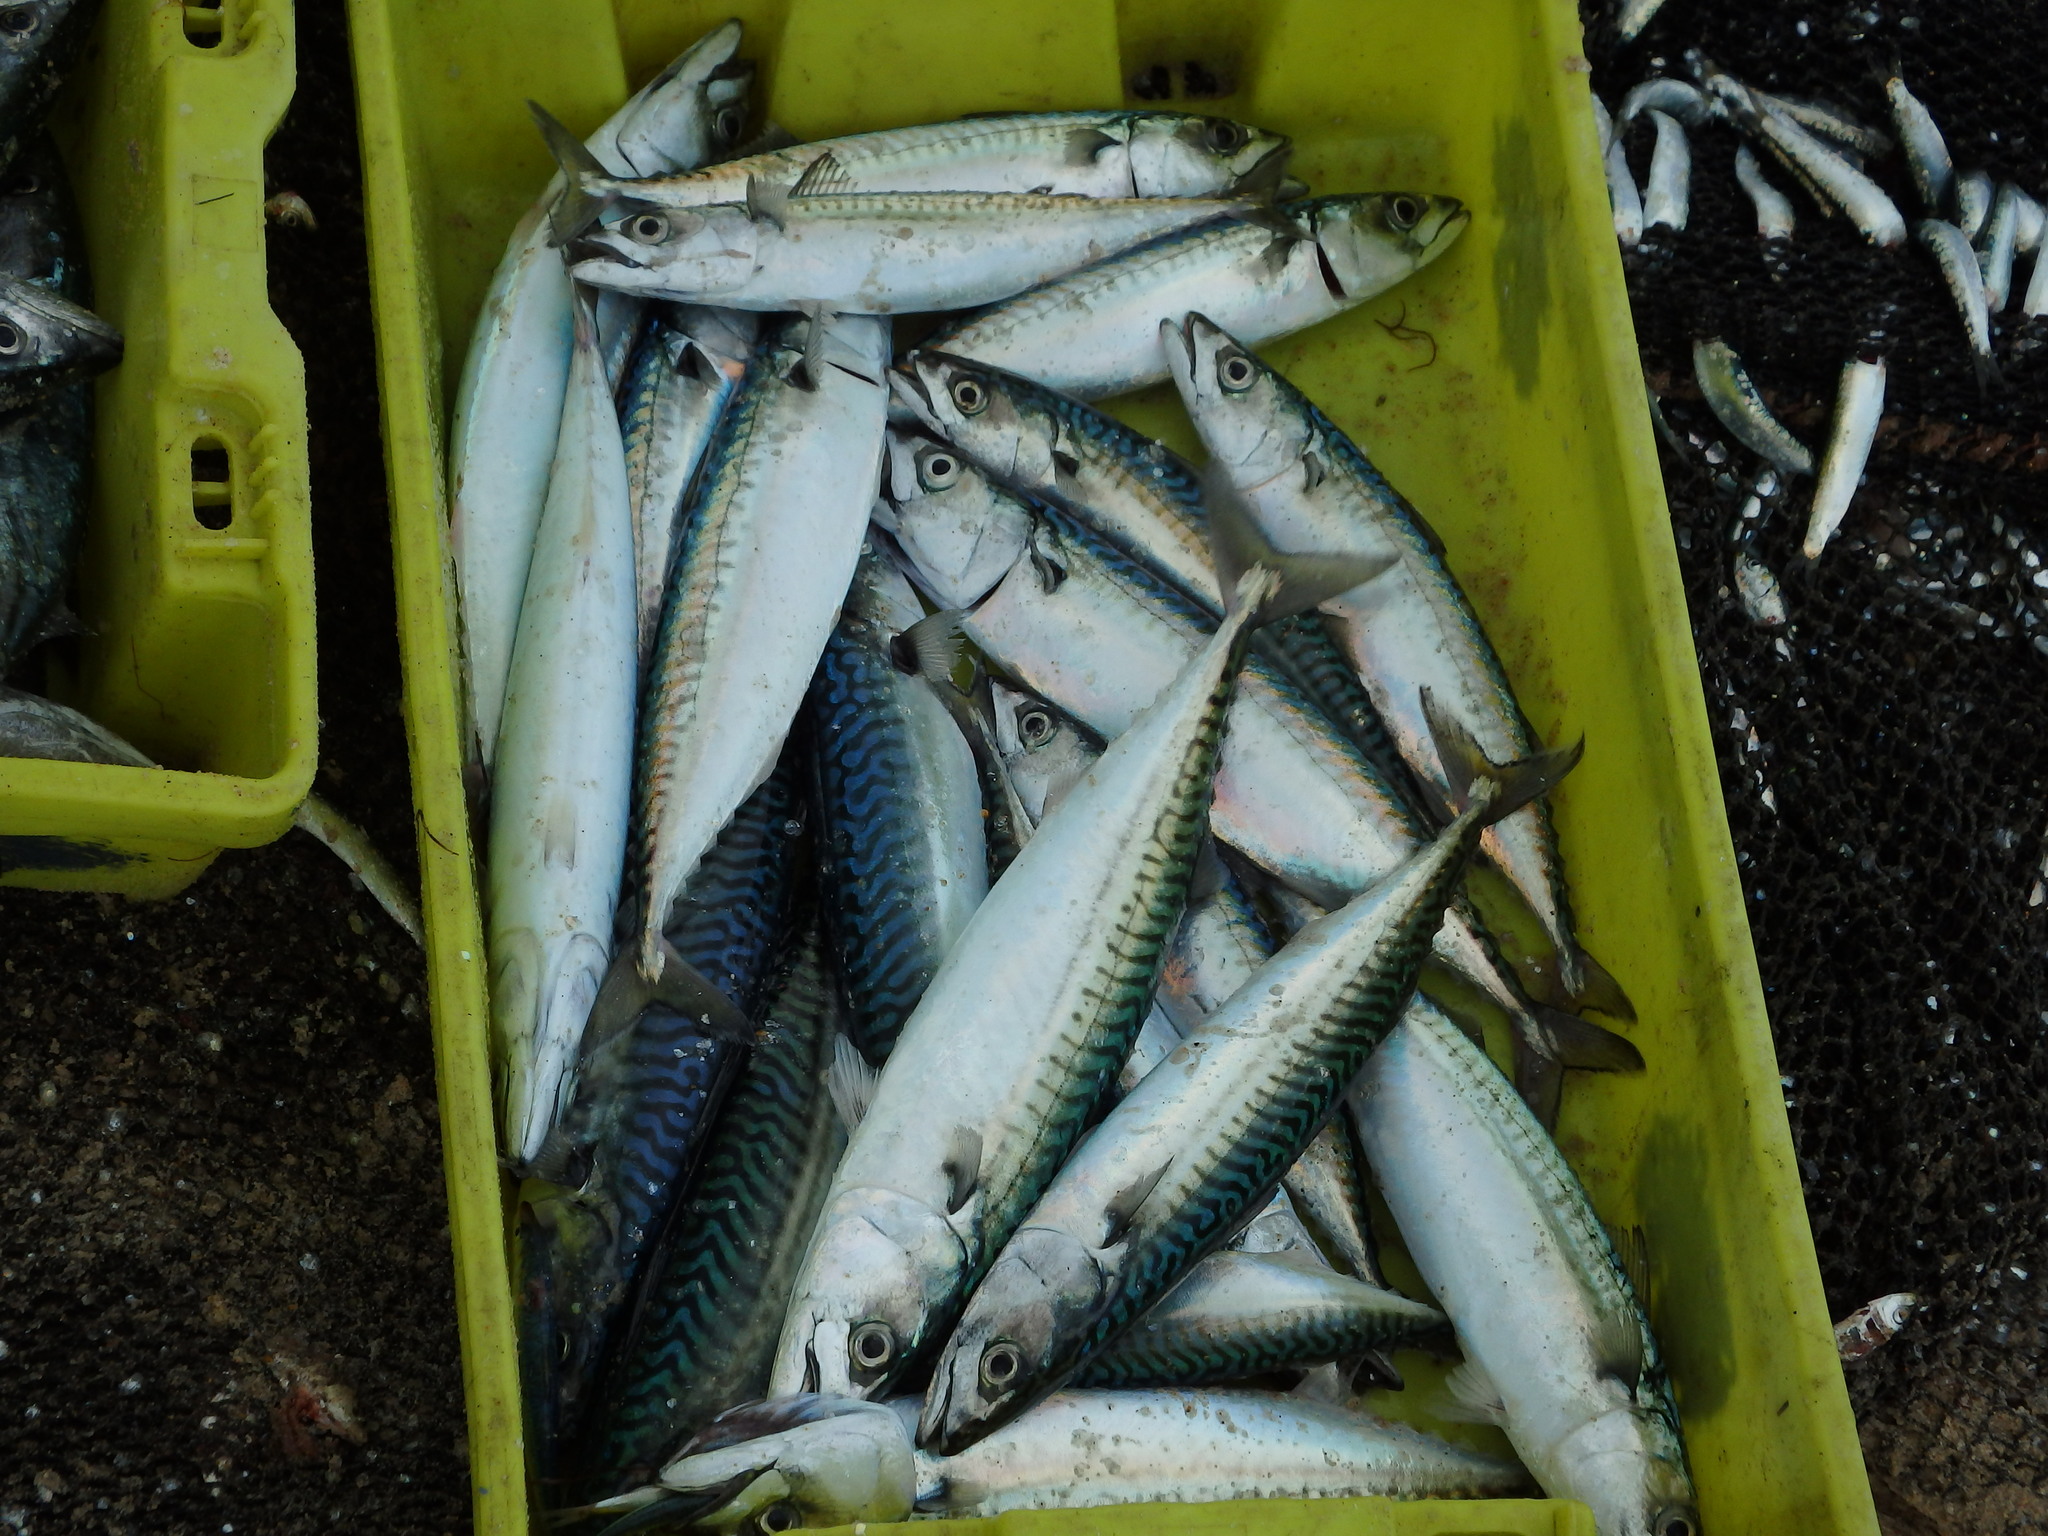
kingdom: Animalia
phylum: Chordata
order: Perciformes
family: Scombridae
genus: Scomber
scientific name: Scomber scombrus
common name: Mackerel
